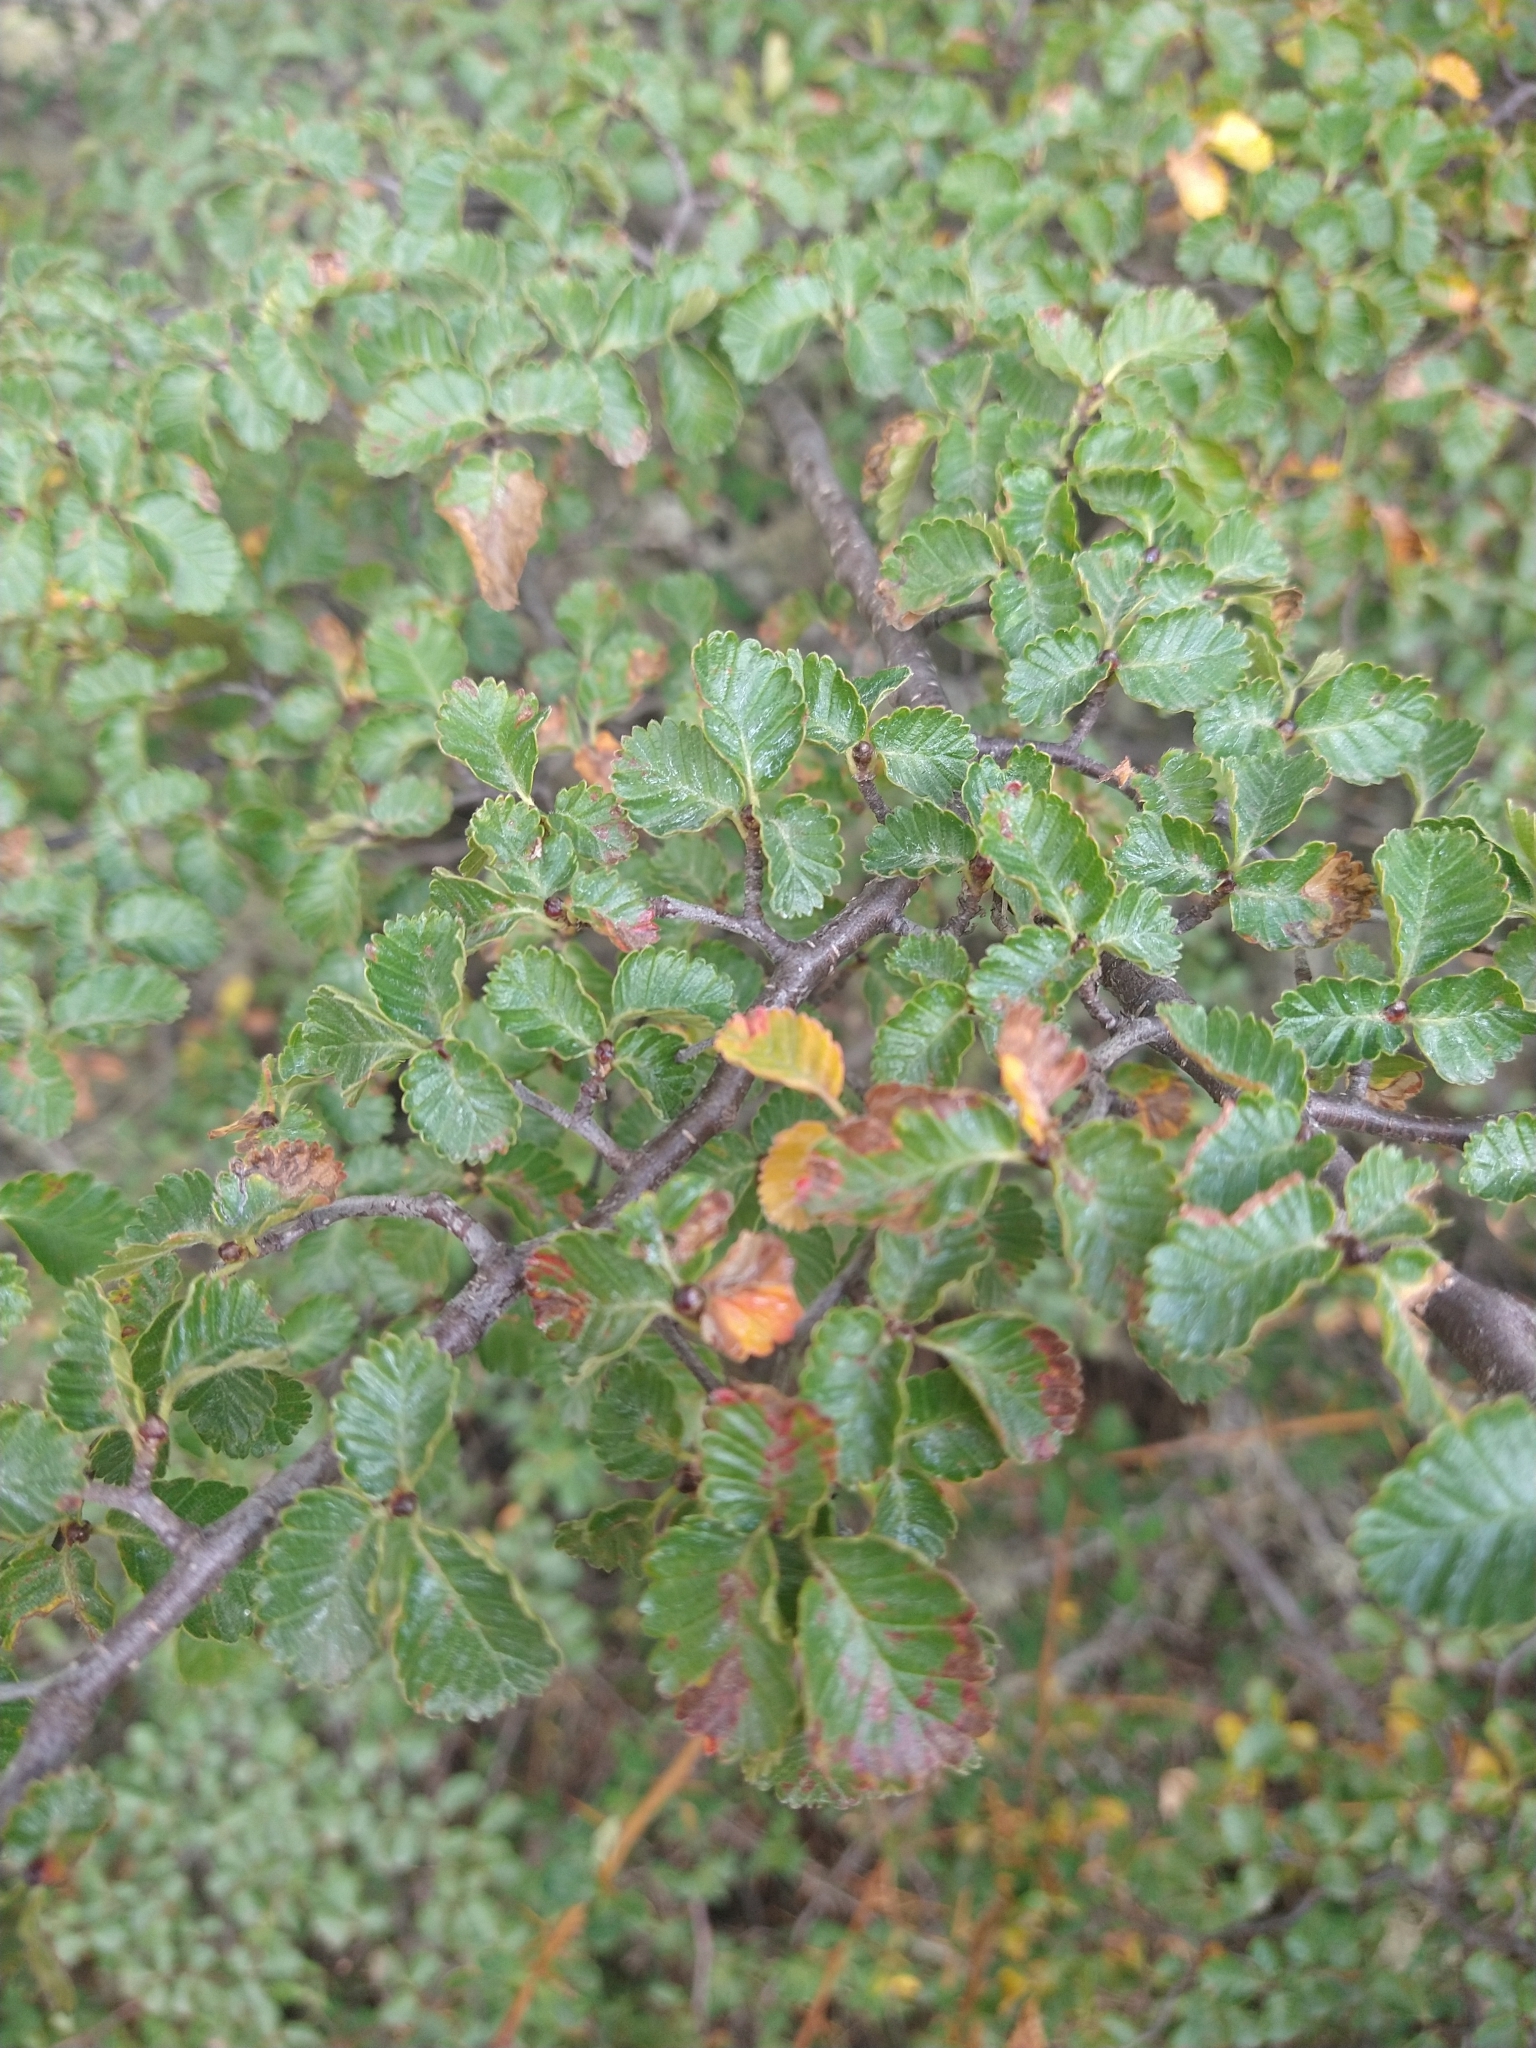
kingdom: Plantae
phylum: Tracheophyta
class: Magnoliopsida
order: Fagales
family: Nothofagaceae
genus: Nothofagus
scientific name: Nothofagus pumilio
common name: Lenga beech
